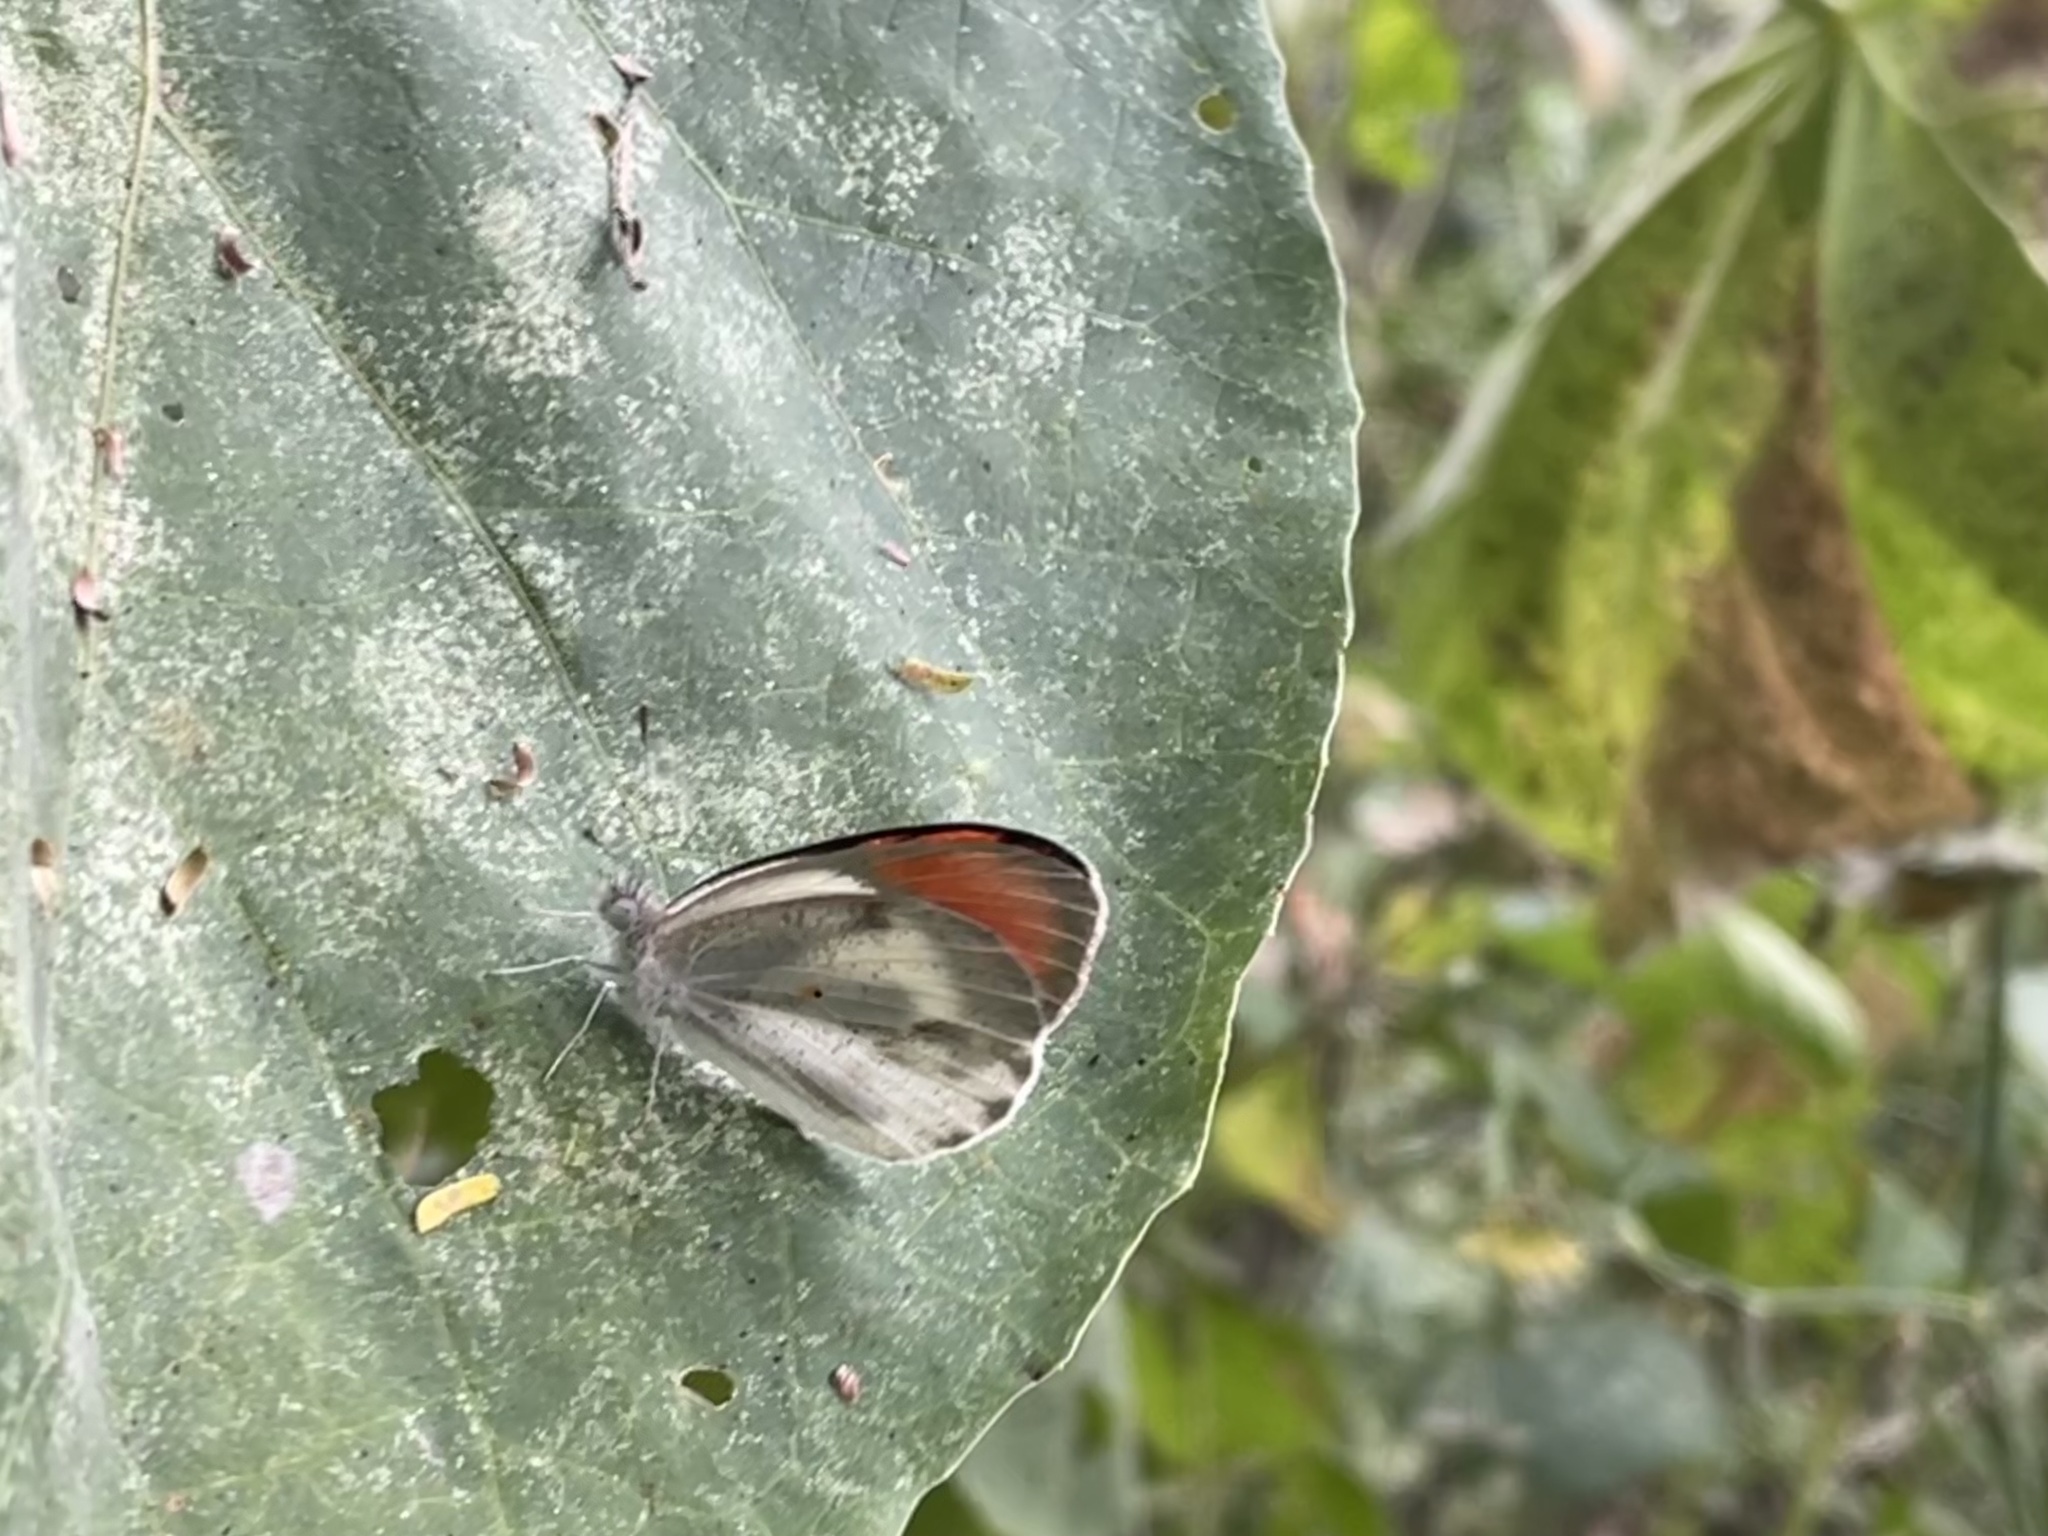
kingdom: Animalia
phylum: Arthropoda
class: Insecta
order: Lepidoptera
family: Pieridae
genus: Colotis
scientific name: Colotis euippe
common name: Round-winged orange tip
